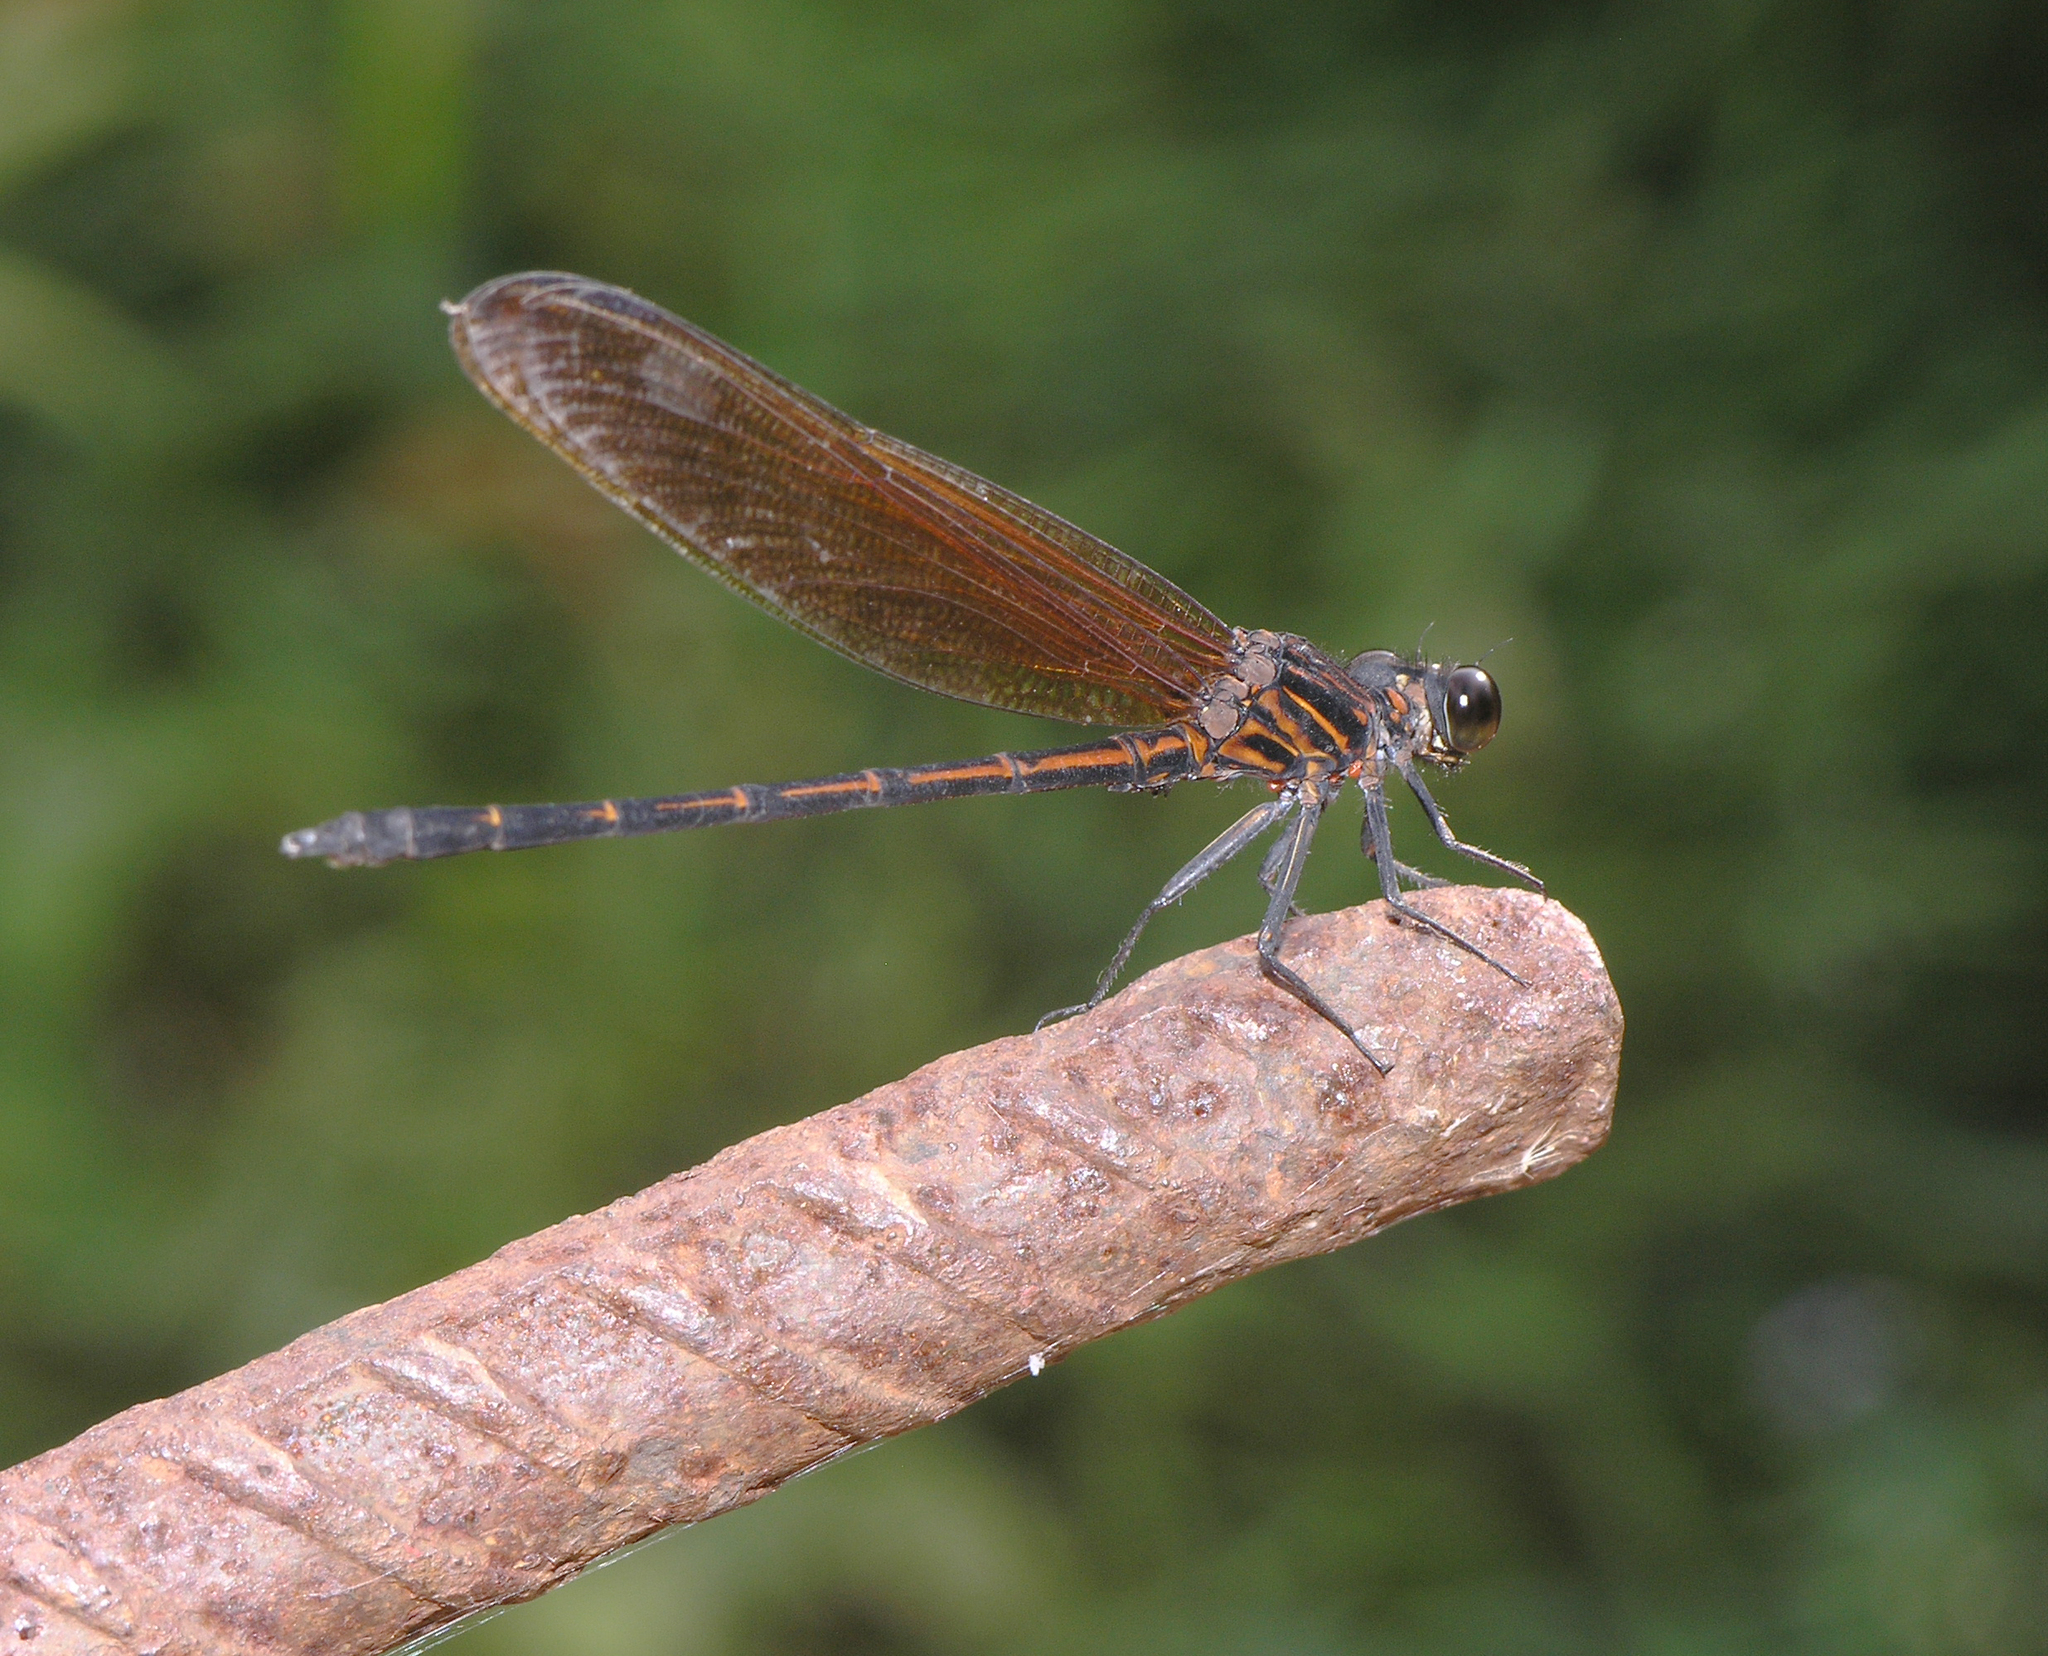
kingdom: Animalia
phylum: Arthropoda
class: Insecta
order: Odonata
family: Euphaeidae
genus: Dysphaea
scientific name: Dysphaea gloriosa
